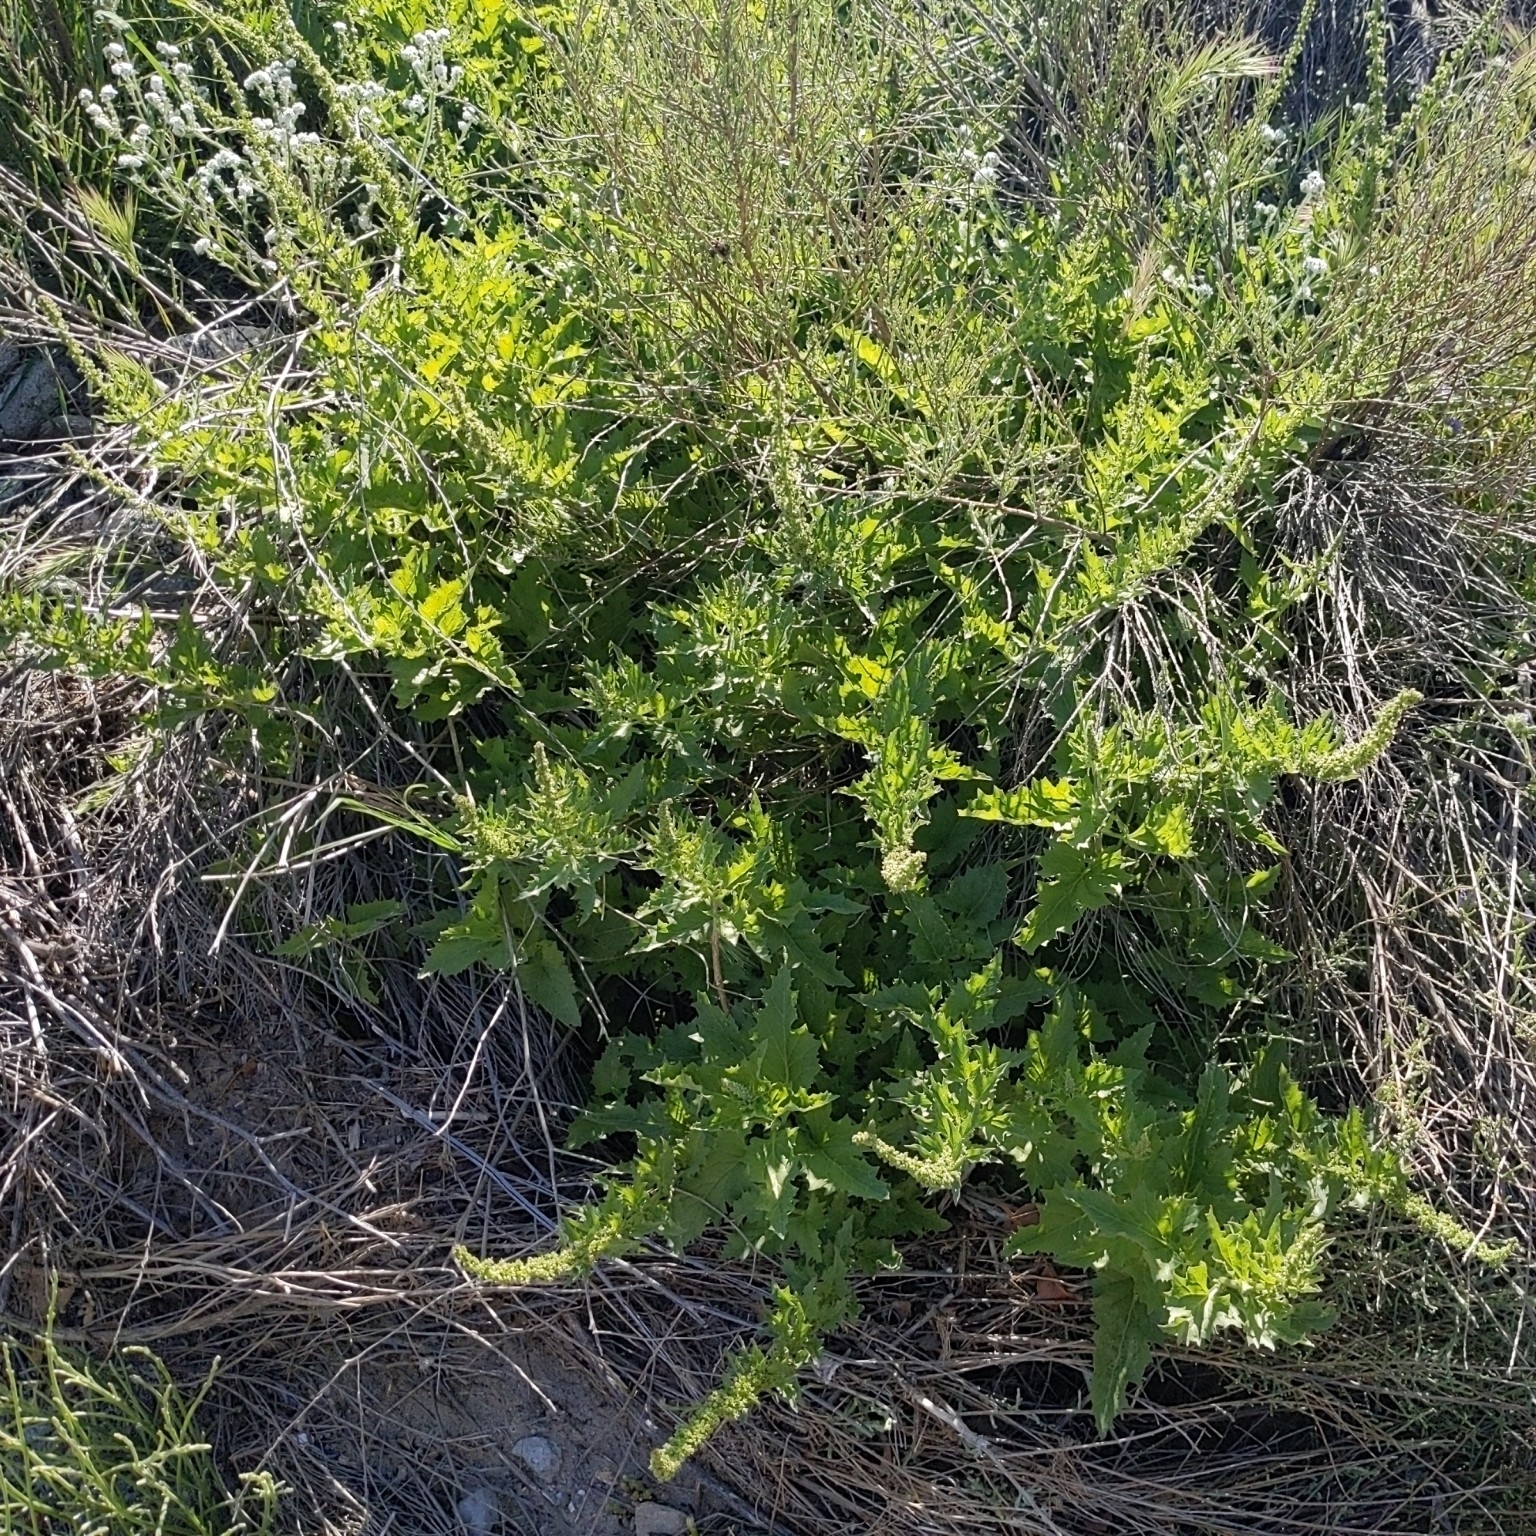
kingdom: Plantae
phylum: Tracheophyta
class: Magnoliopsida
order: Caryophyllales
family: Amaranthaceae
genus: Blitum
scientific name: Blitum californicum
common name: California goosefoot
